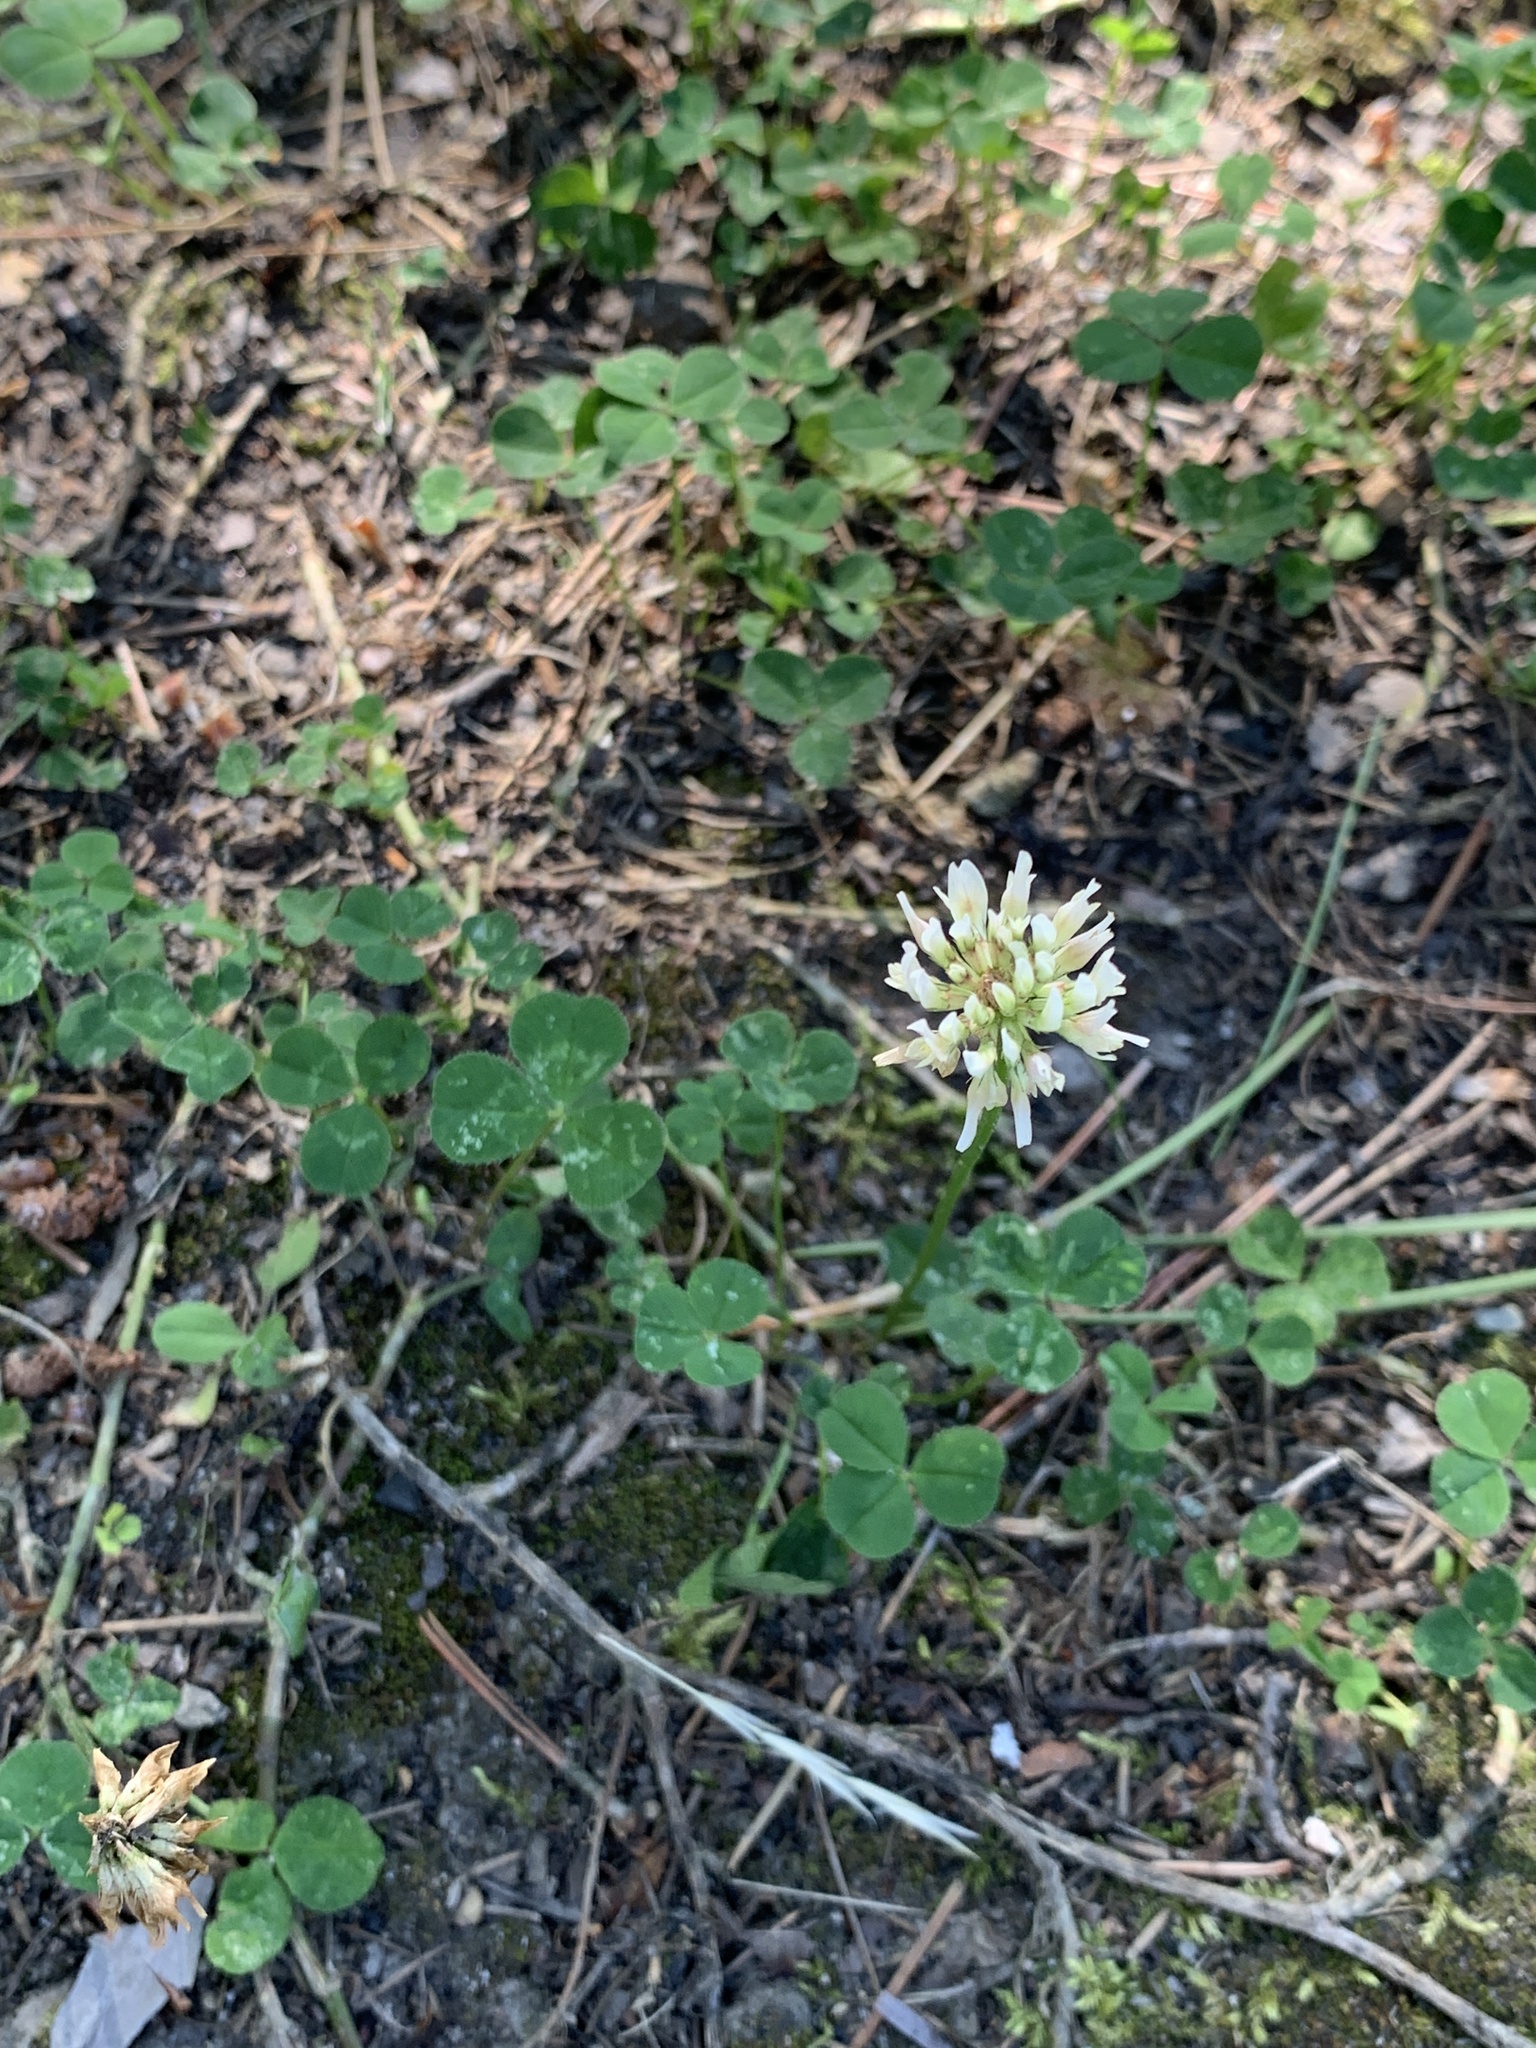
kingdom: Plantae
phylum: Tracheophyta
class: Magnoliopsida
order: Fabales
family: Fabaceae
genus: Trifolium
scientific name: Trifolium repens
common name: White clover
